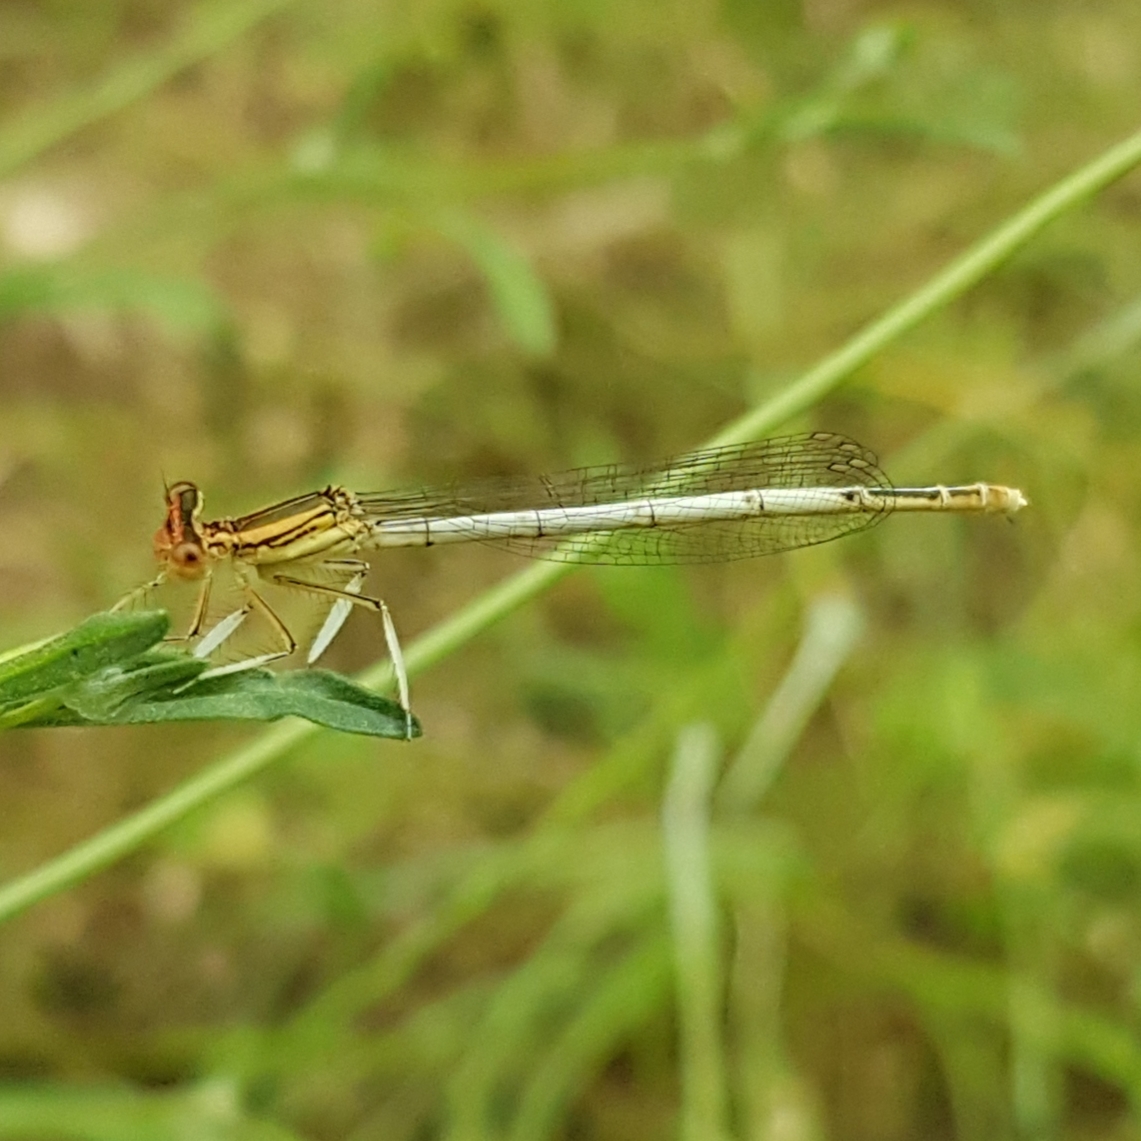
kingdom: Animalia
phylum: Arthropoda
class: Insecta
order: Odonata
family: Platycnemididae
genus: Platycnemis
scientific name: Platycnemis latipes
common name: White featherleg
